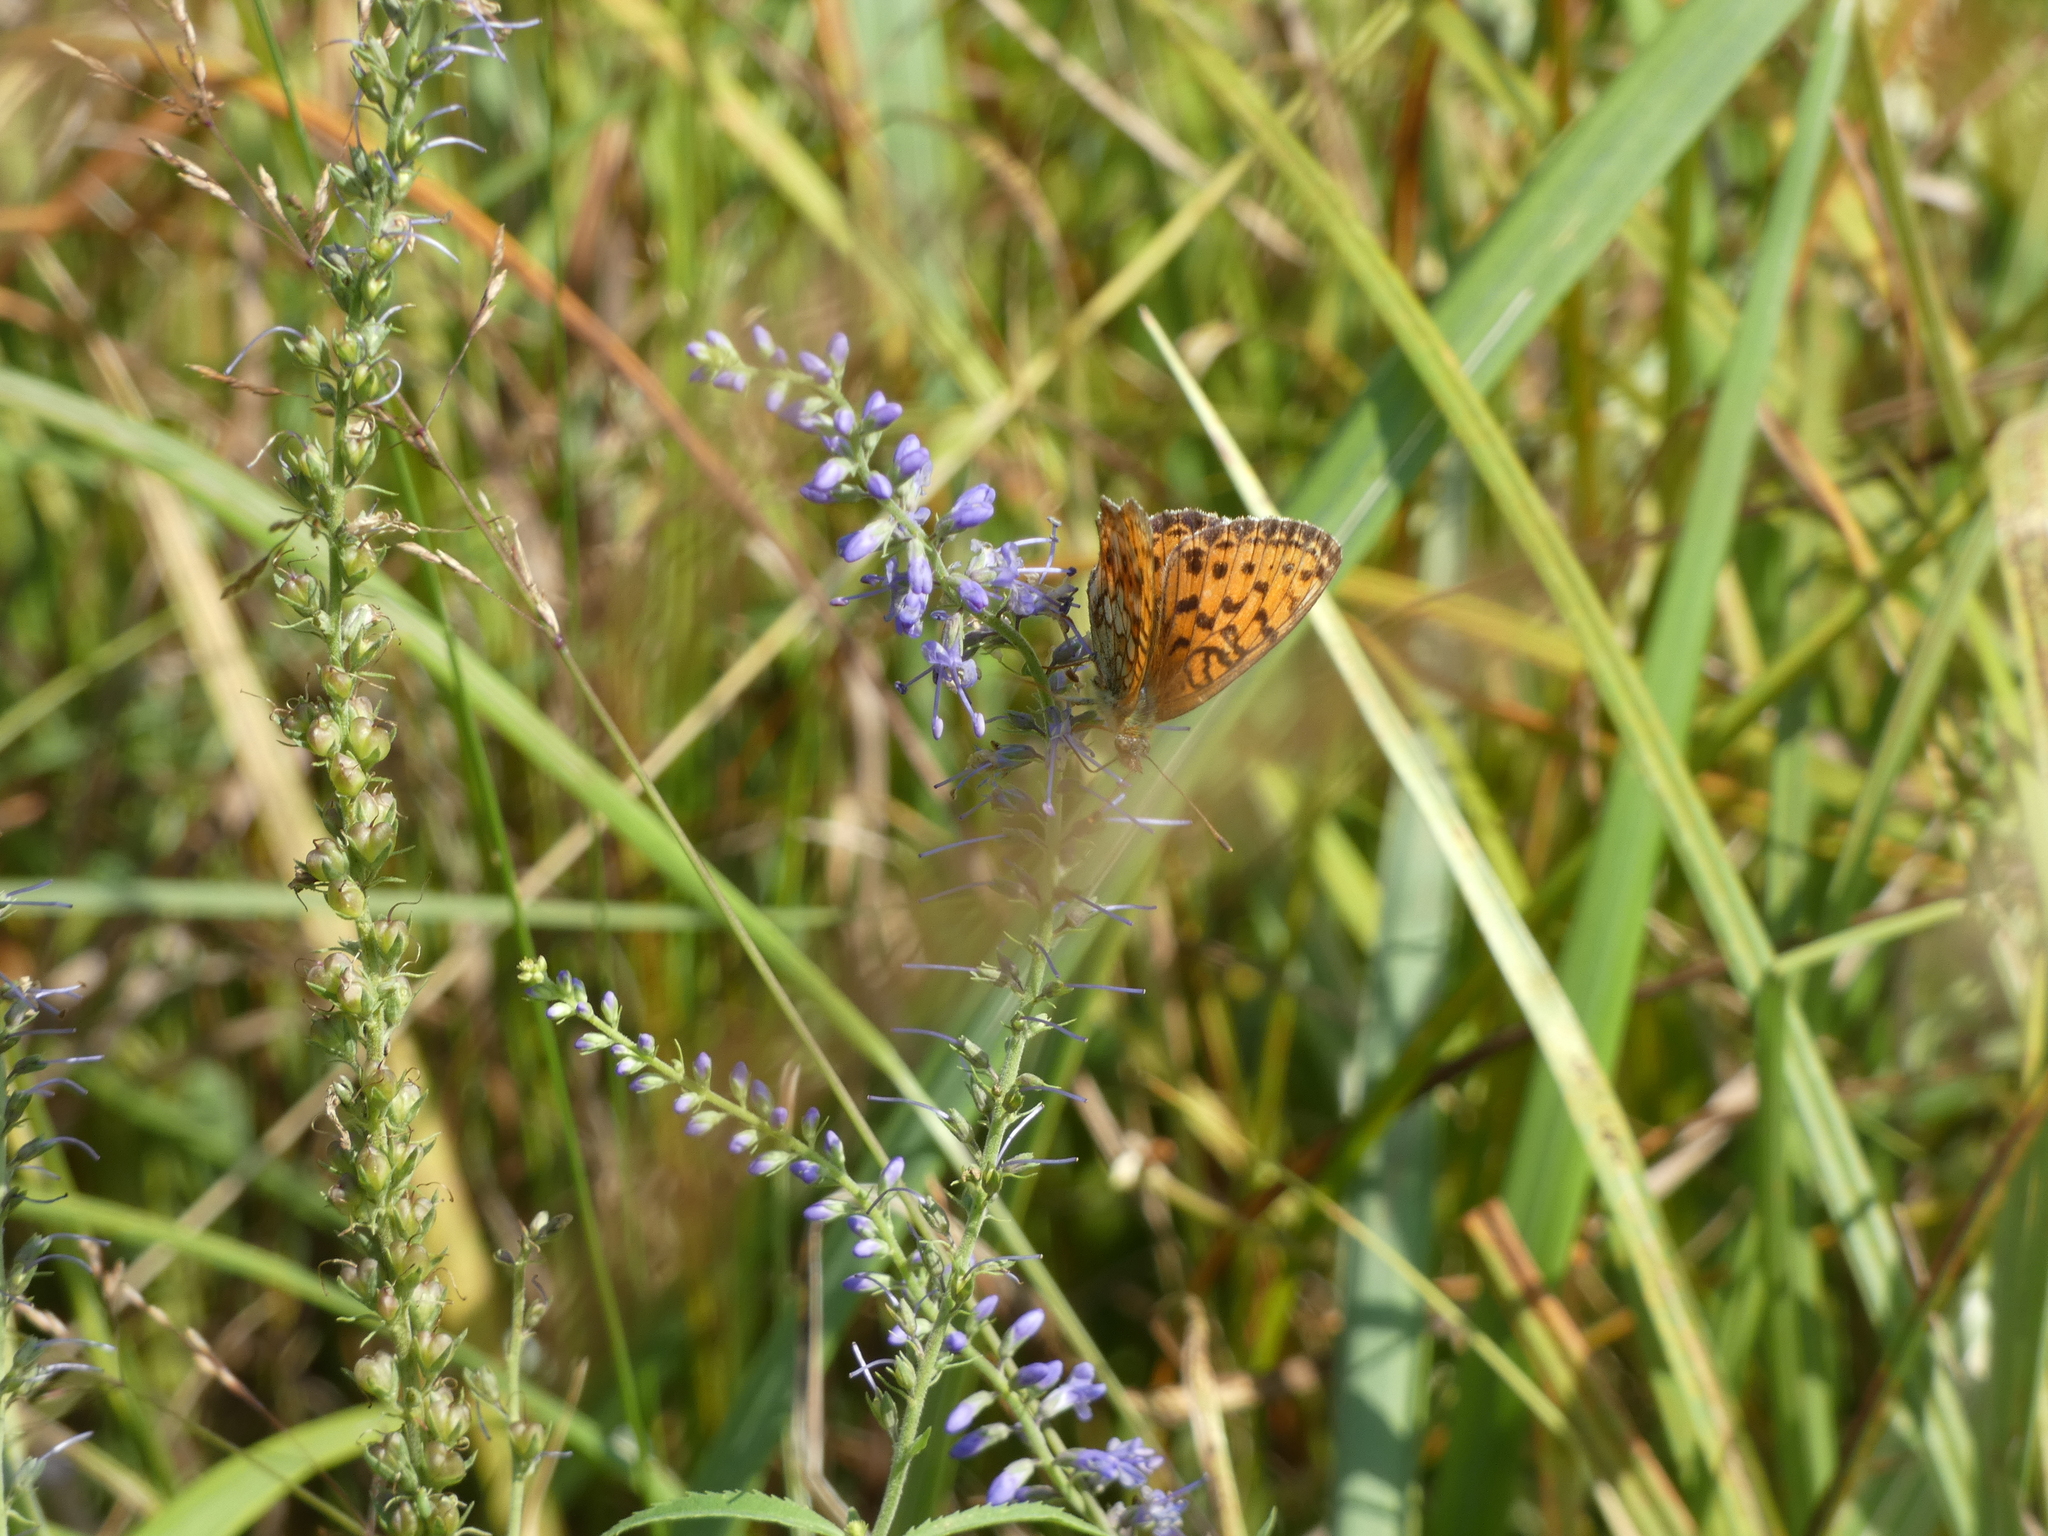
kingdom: Animalia
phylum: Arthropoda
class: Insecta
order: Lepidoptera
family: Nymphalidae
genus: Brenthis
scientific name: Brenthis ino
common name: Lesser marbled fritillary
